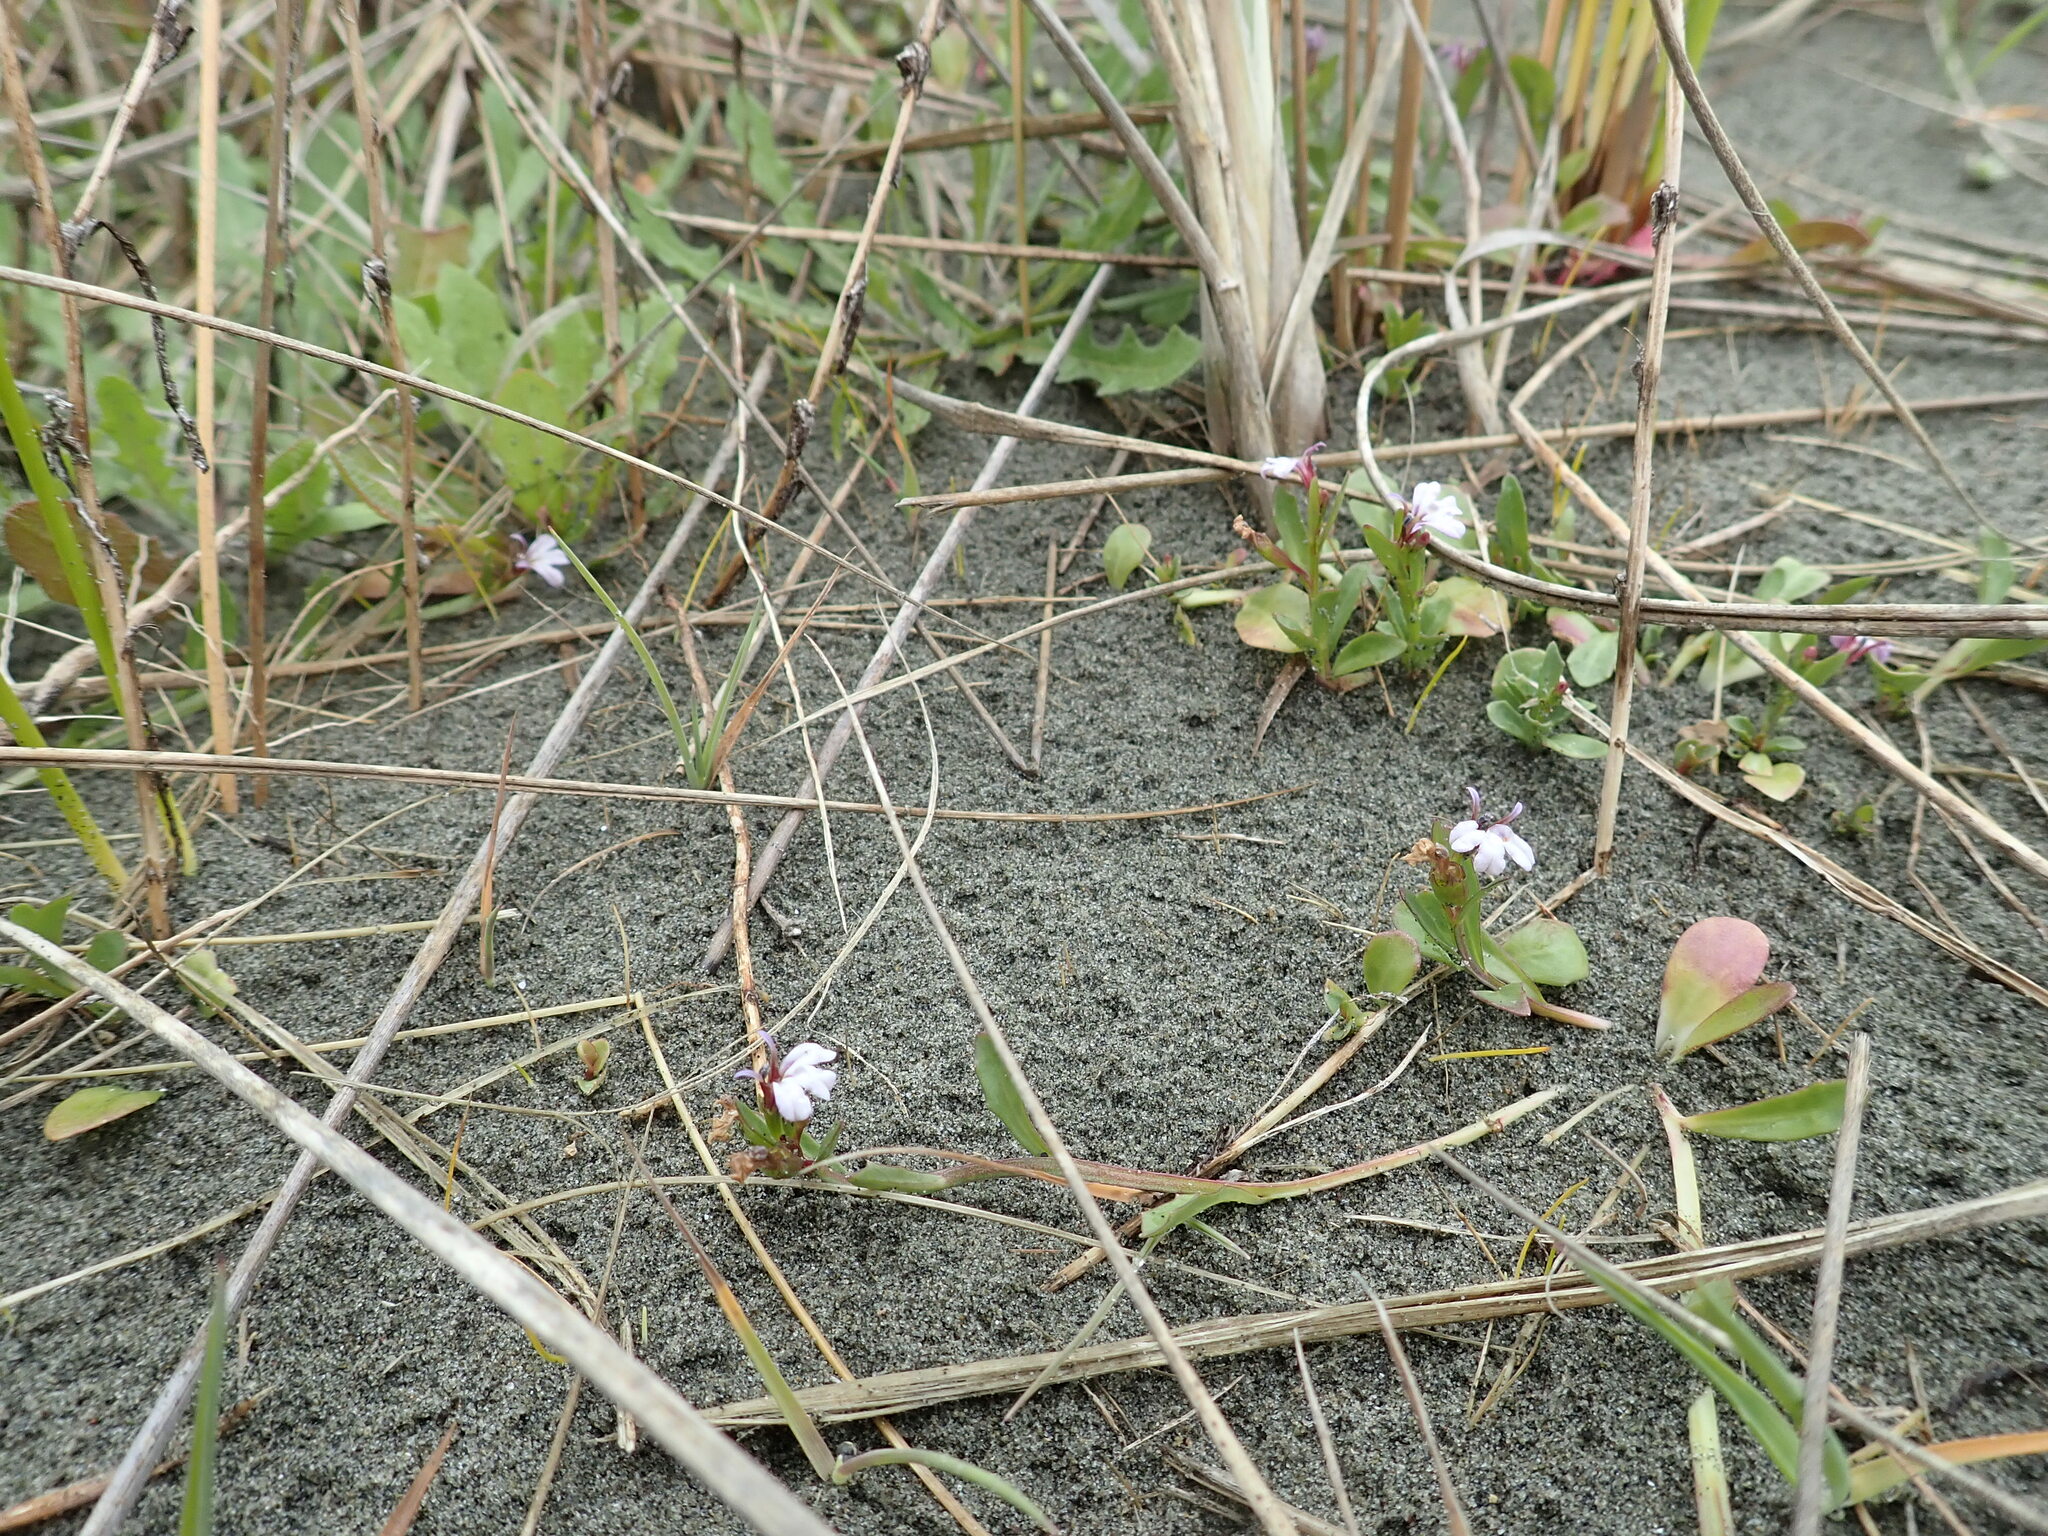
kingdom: Plantae
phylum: Tracheophyta
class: Magnoliopsida
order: Asterales
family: Campanulaceae
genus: Lobelia
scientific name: Lobelia anceps
